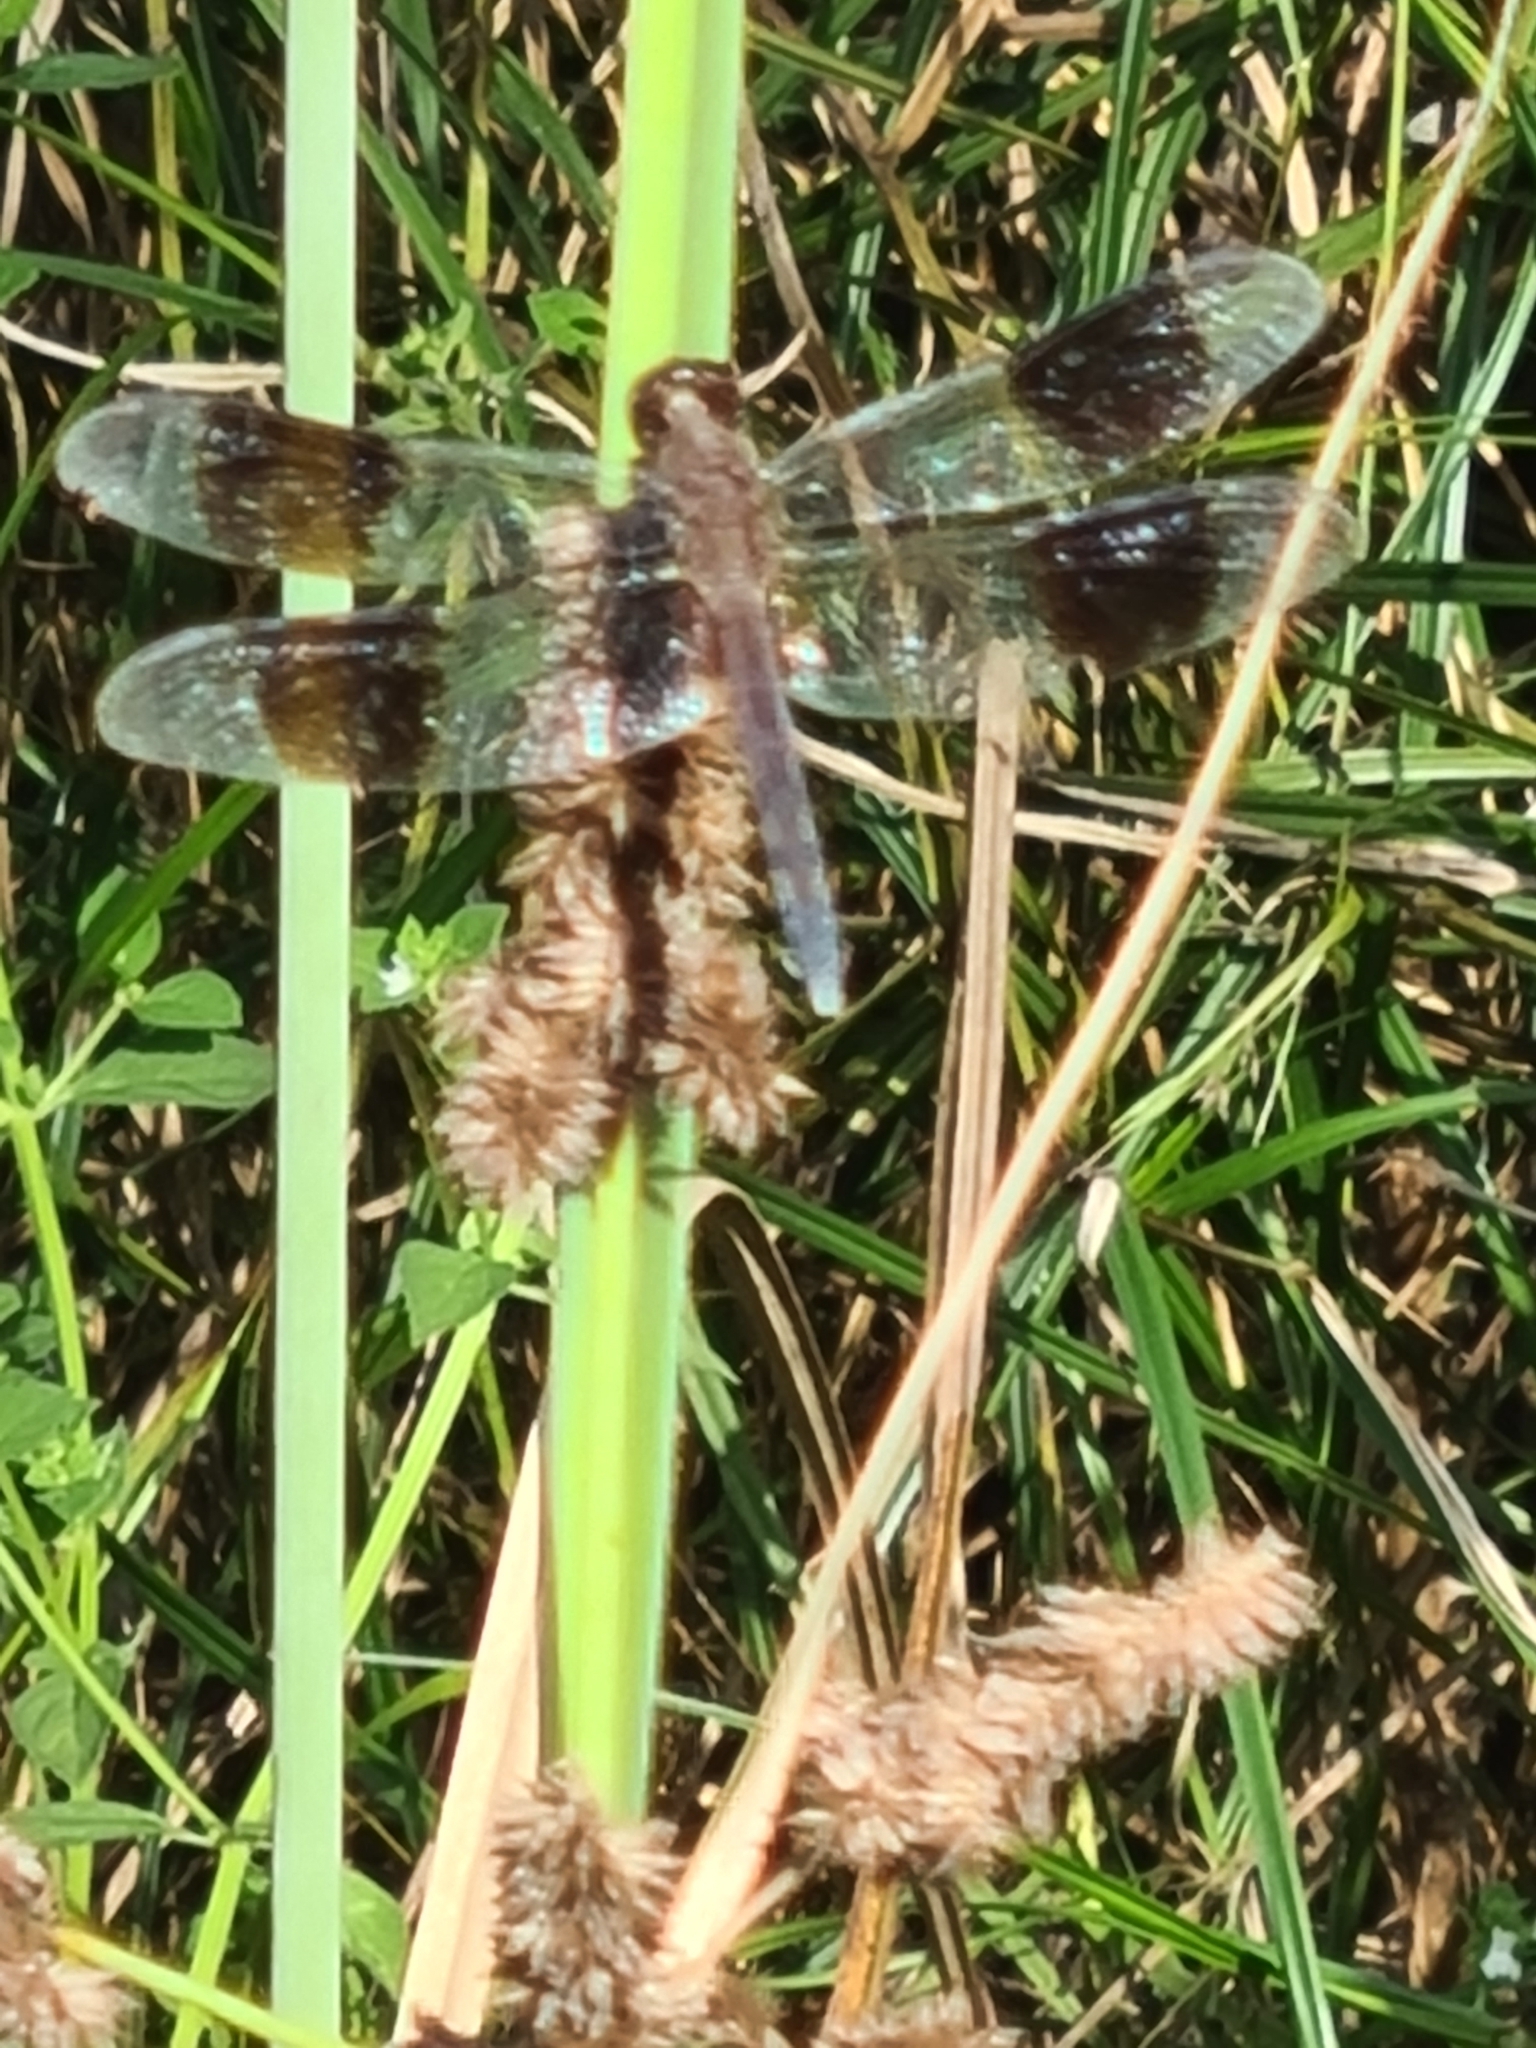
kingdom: Animalia
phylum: Arthropoda
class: Insecta
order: Odonata
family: Libellulidae
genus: Erythrodiplax
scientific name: Erythrodiplax umbrata
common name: Band-winged dragonlet
